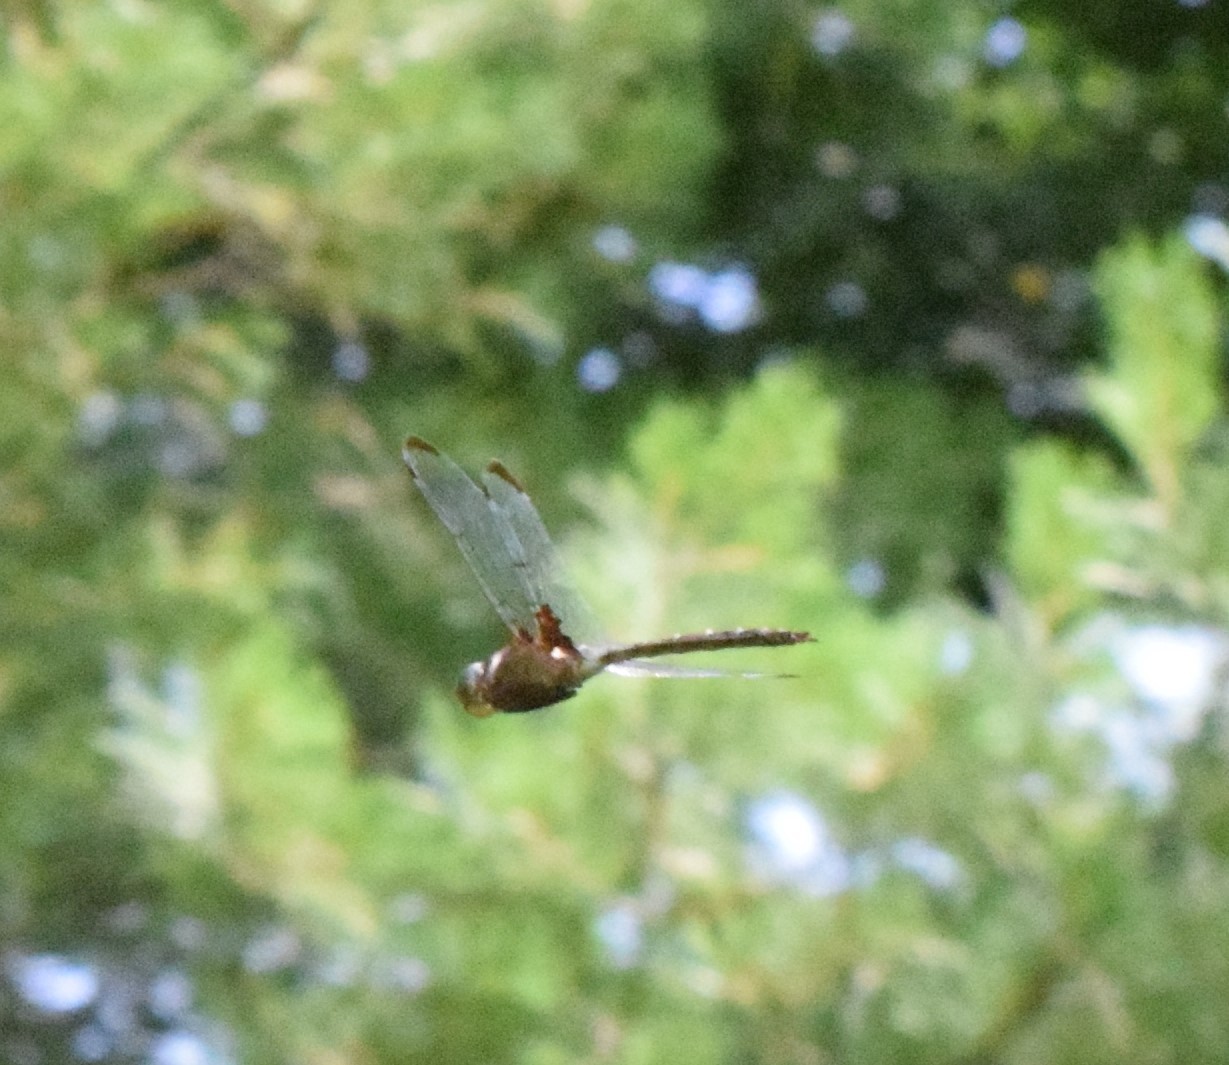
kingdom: Animalia
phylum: Arthropoda
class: Insecta
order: Odonata
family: Corduliidae
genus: Epitheca
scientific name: Epitheca princeps
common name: Prince baskettail
